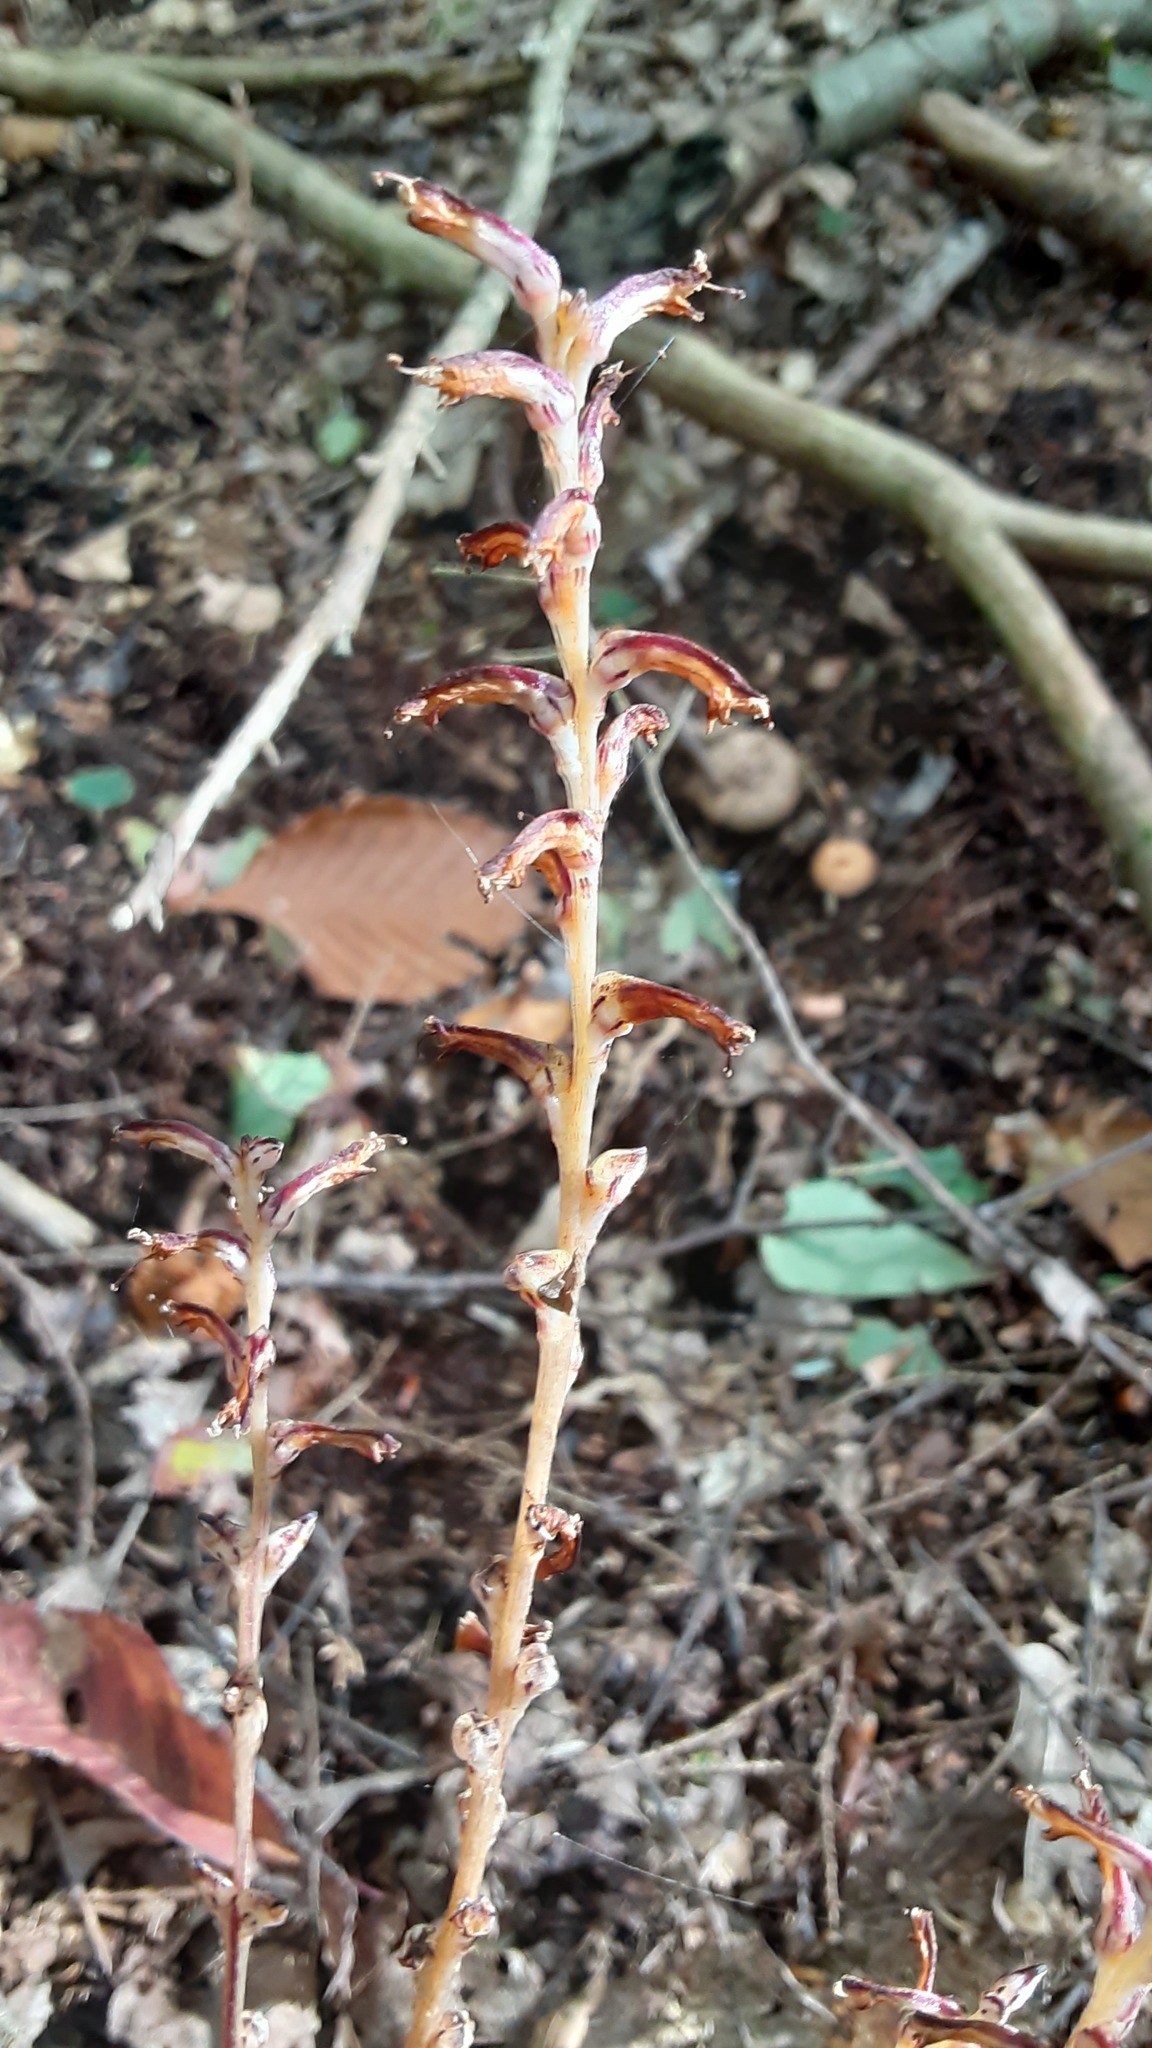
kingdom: Plantae
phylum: Tracheophyta
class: Magnoliopsida
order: Lamiales
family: Orobanchaceae
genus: Epifagus
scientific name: Epifagus virginiana
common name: Beechdrops
